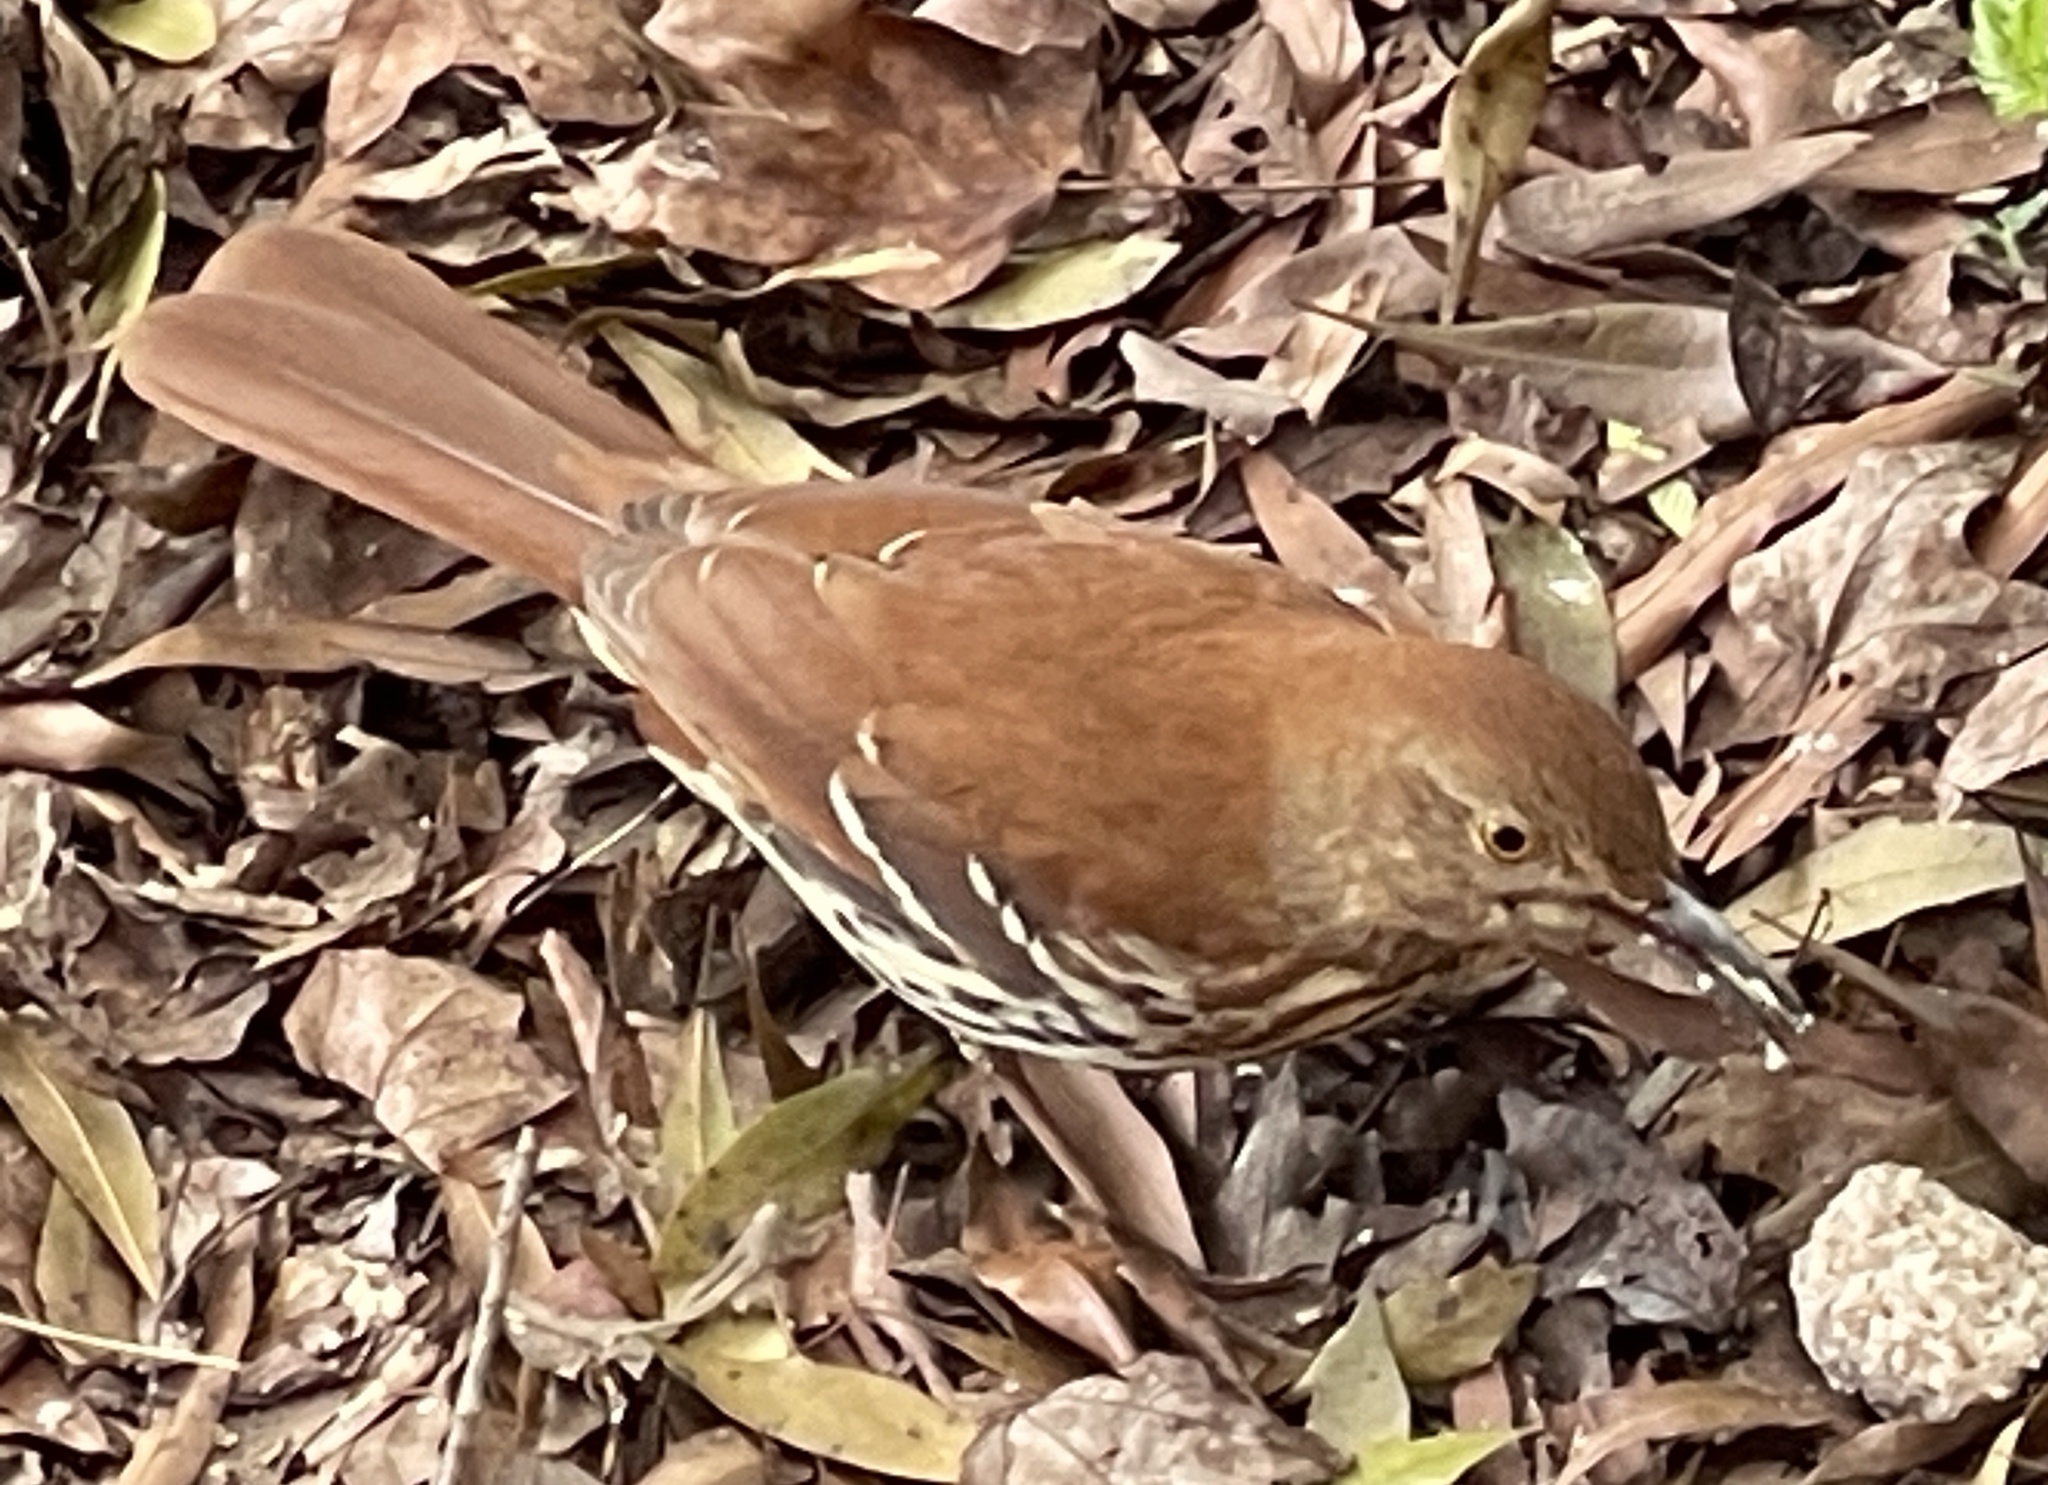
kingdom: Animalia
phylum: Chordata
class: Aves
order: Passeriformes
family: Mimidae
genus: Toxostoma
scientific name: Toxostoma rufum
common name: Brown thrasher
